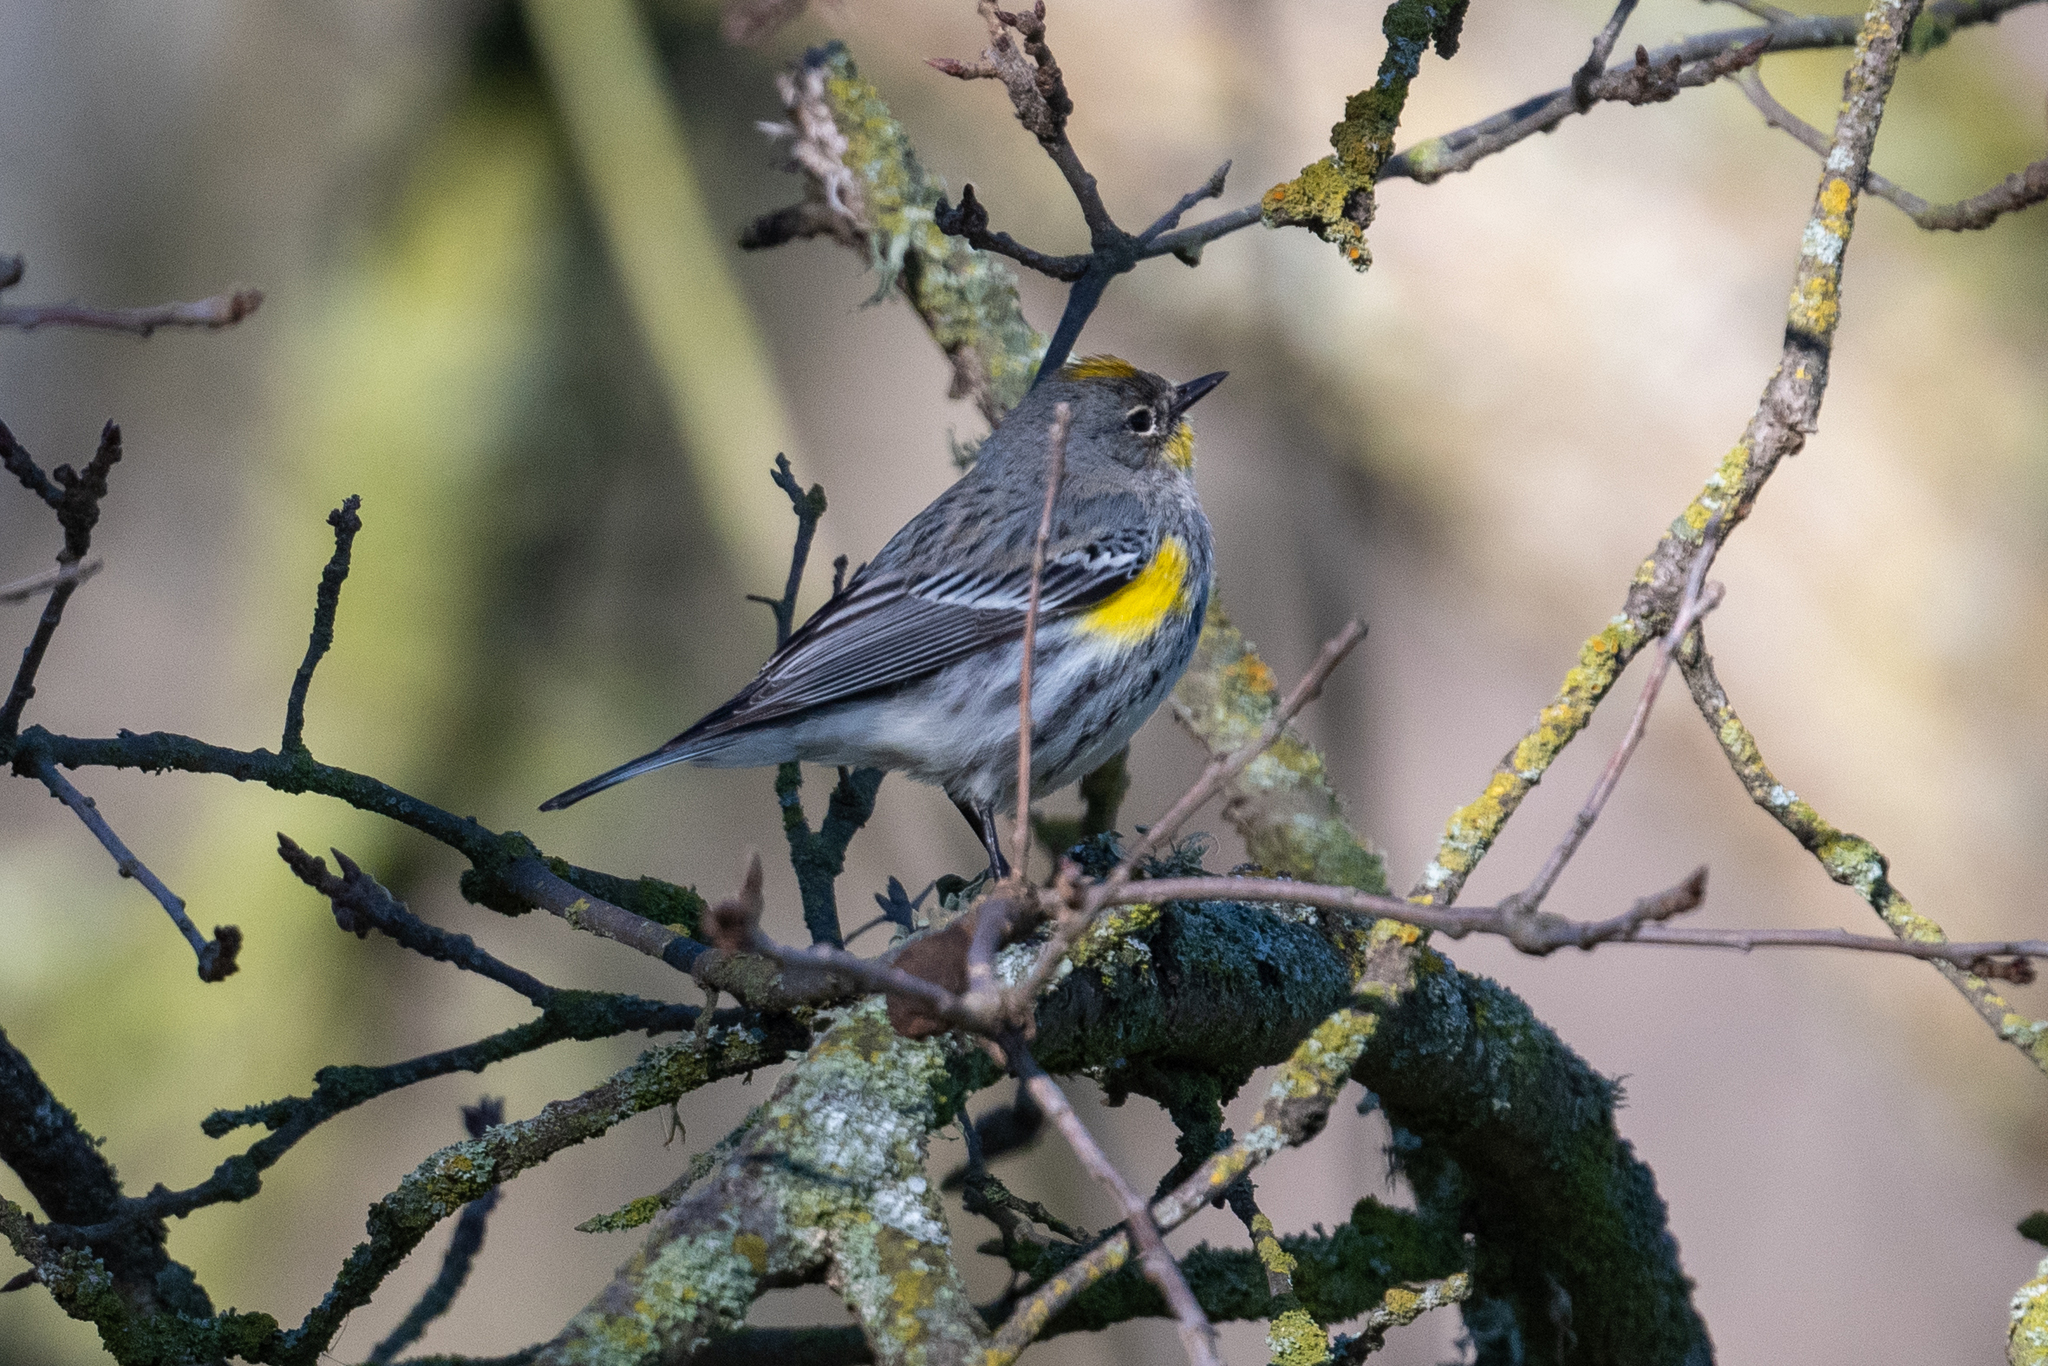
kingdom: Animalia
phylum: Chordata
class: Aves
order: Passeriformes
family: Parulidae
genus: Setophaga
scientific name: Setophaga coronata
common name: Myrtle warbler
